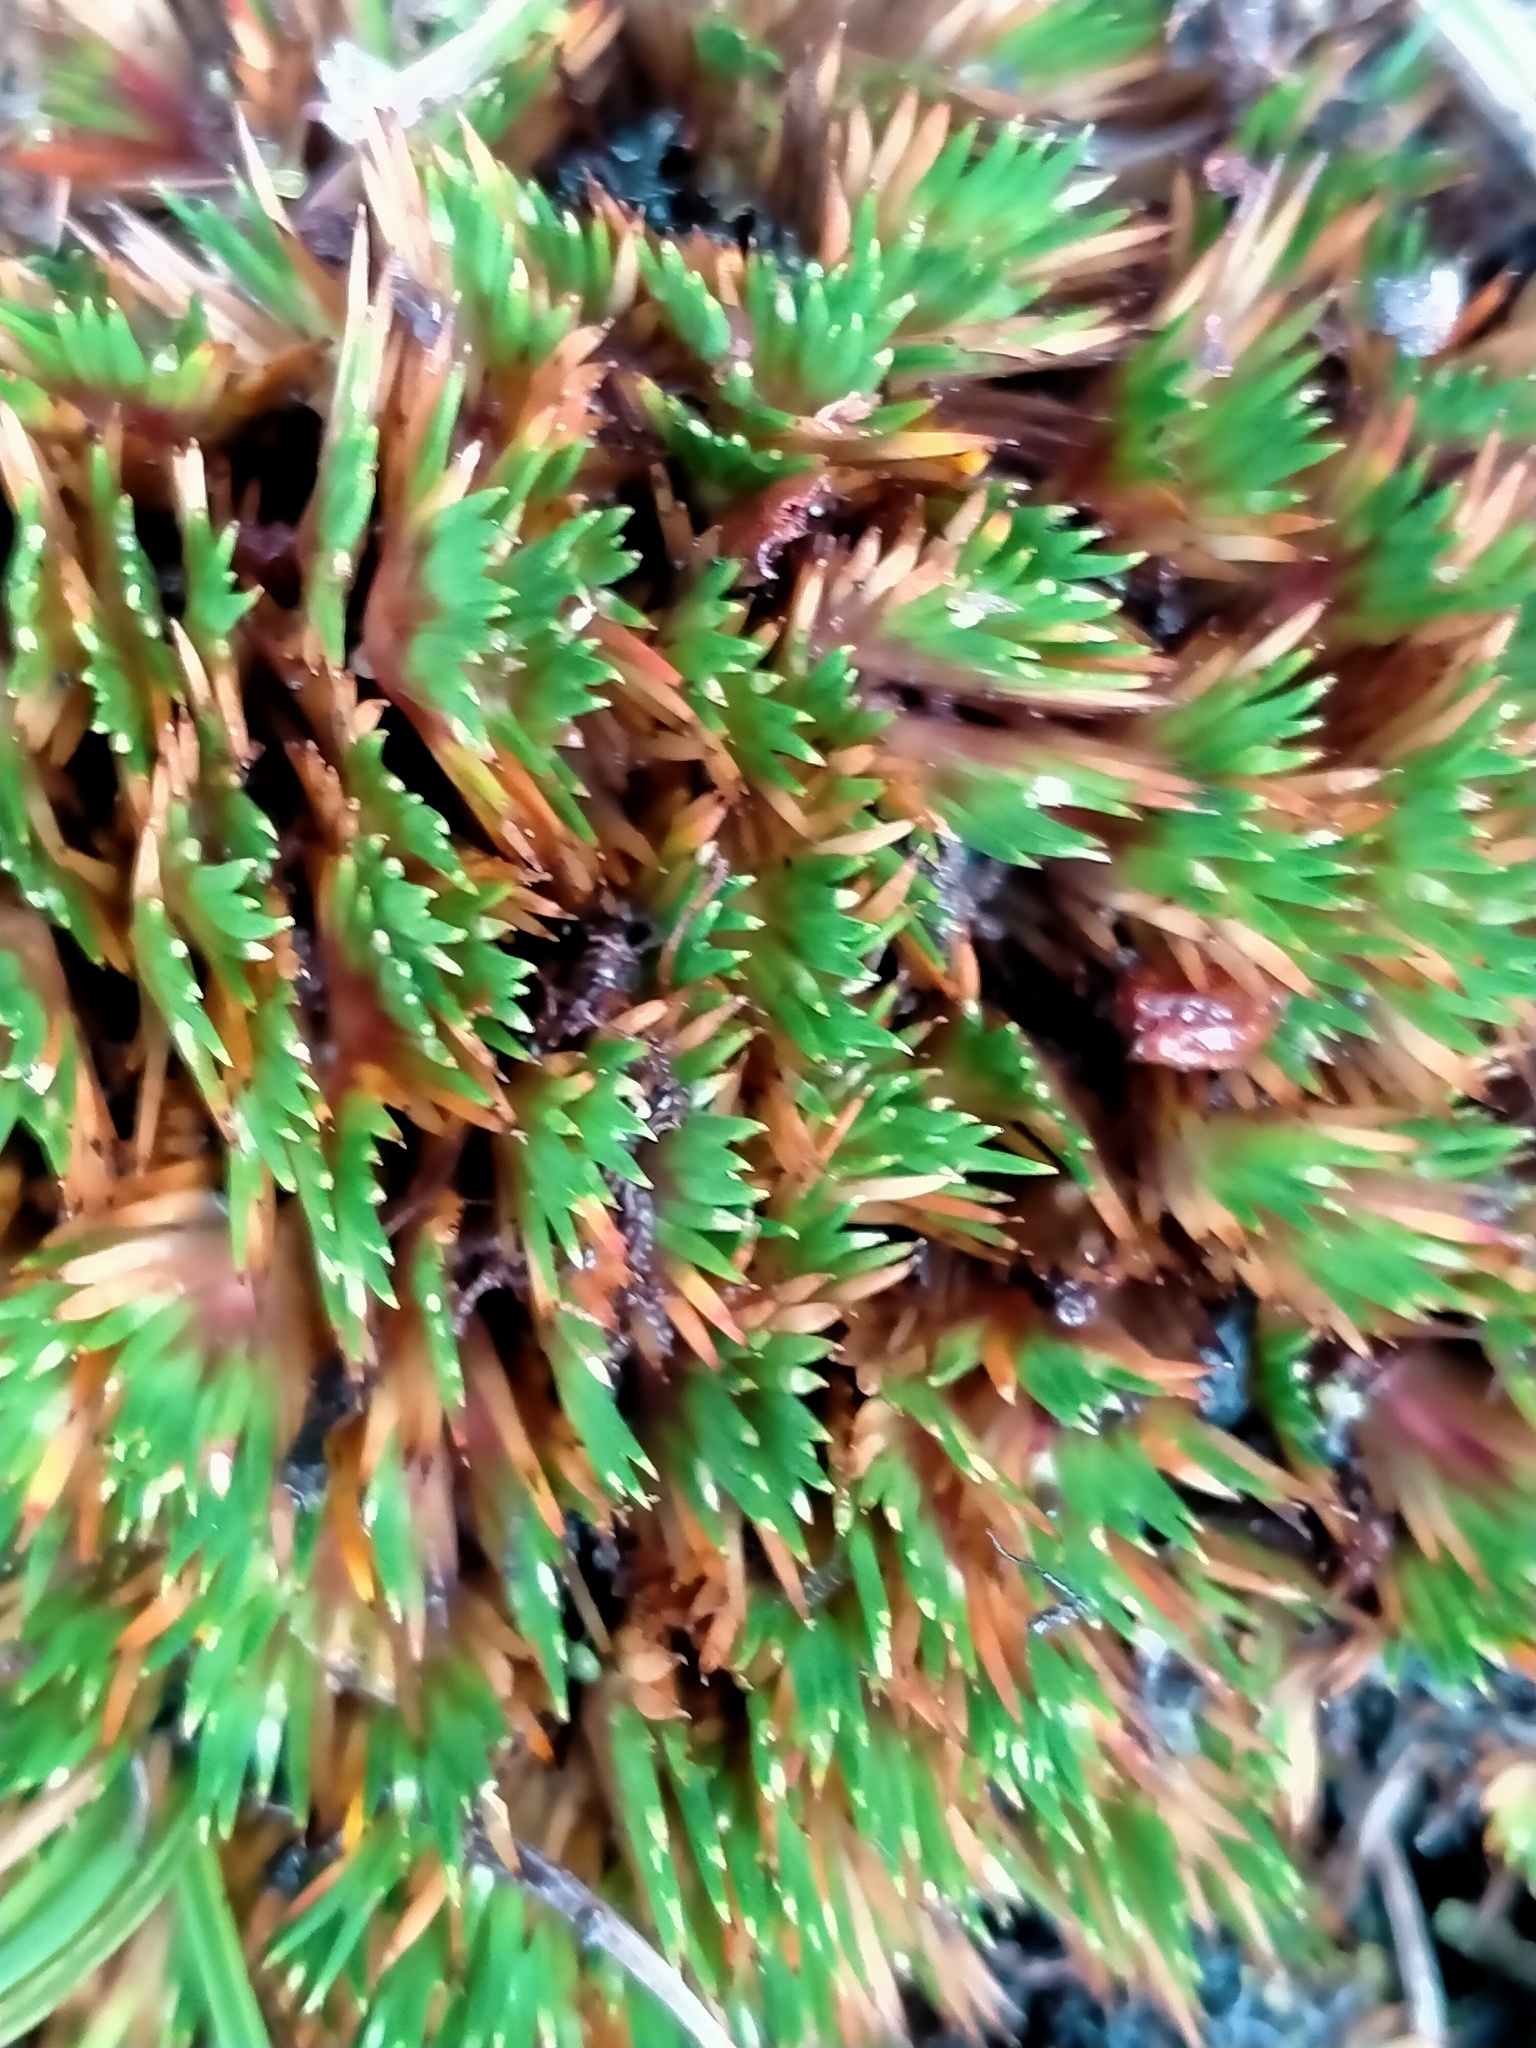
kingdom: Plantae
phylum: Tracheophyta
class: Liliopsida
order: Poales
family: Cyperaceae
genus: Oreobolus
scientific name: Oreobolus pectinatus
